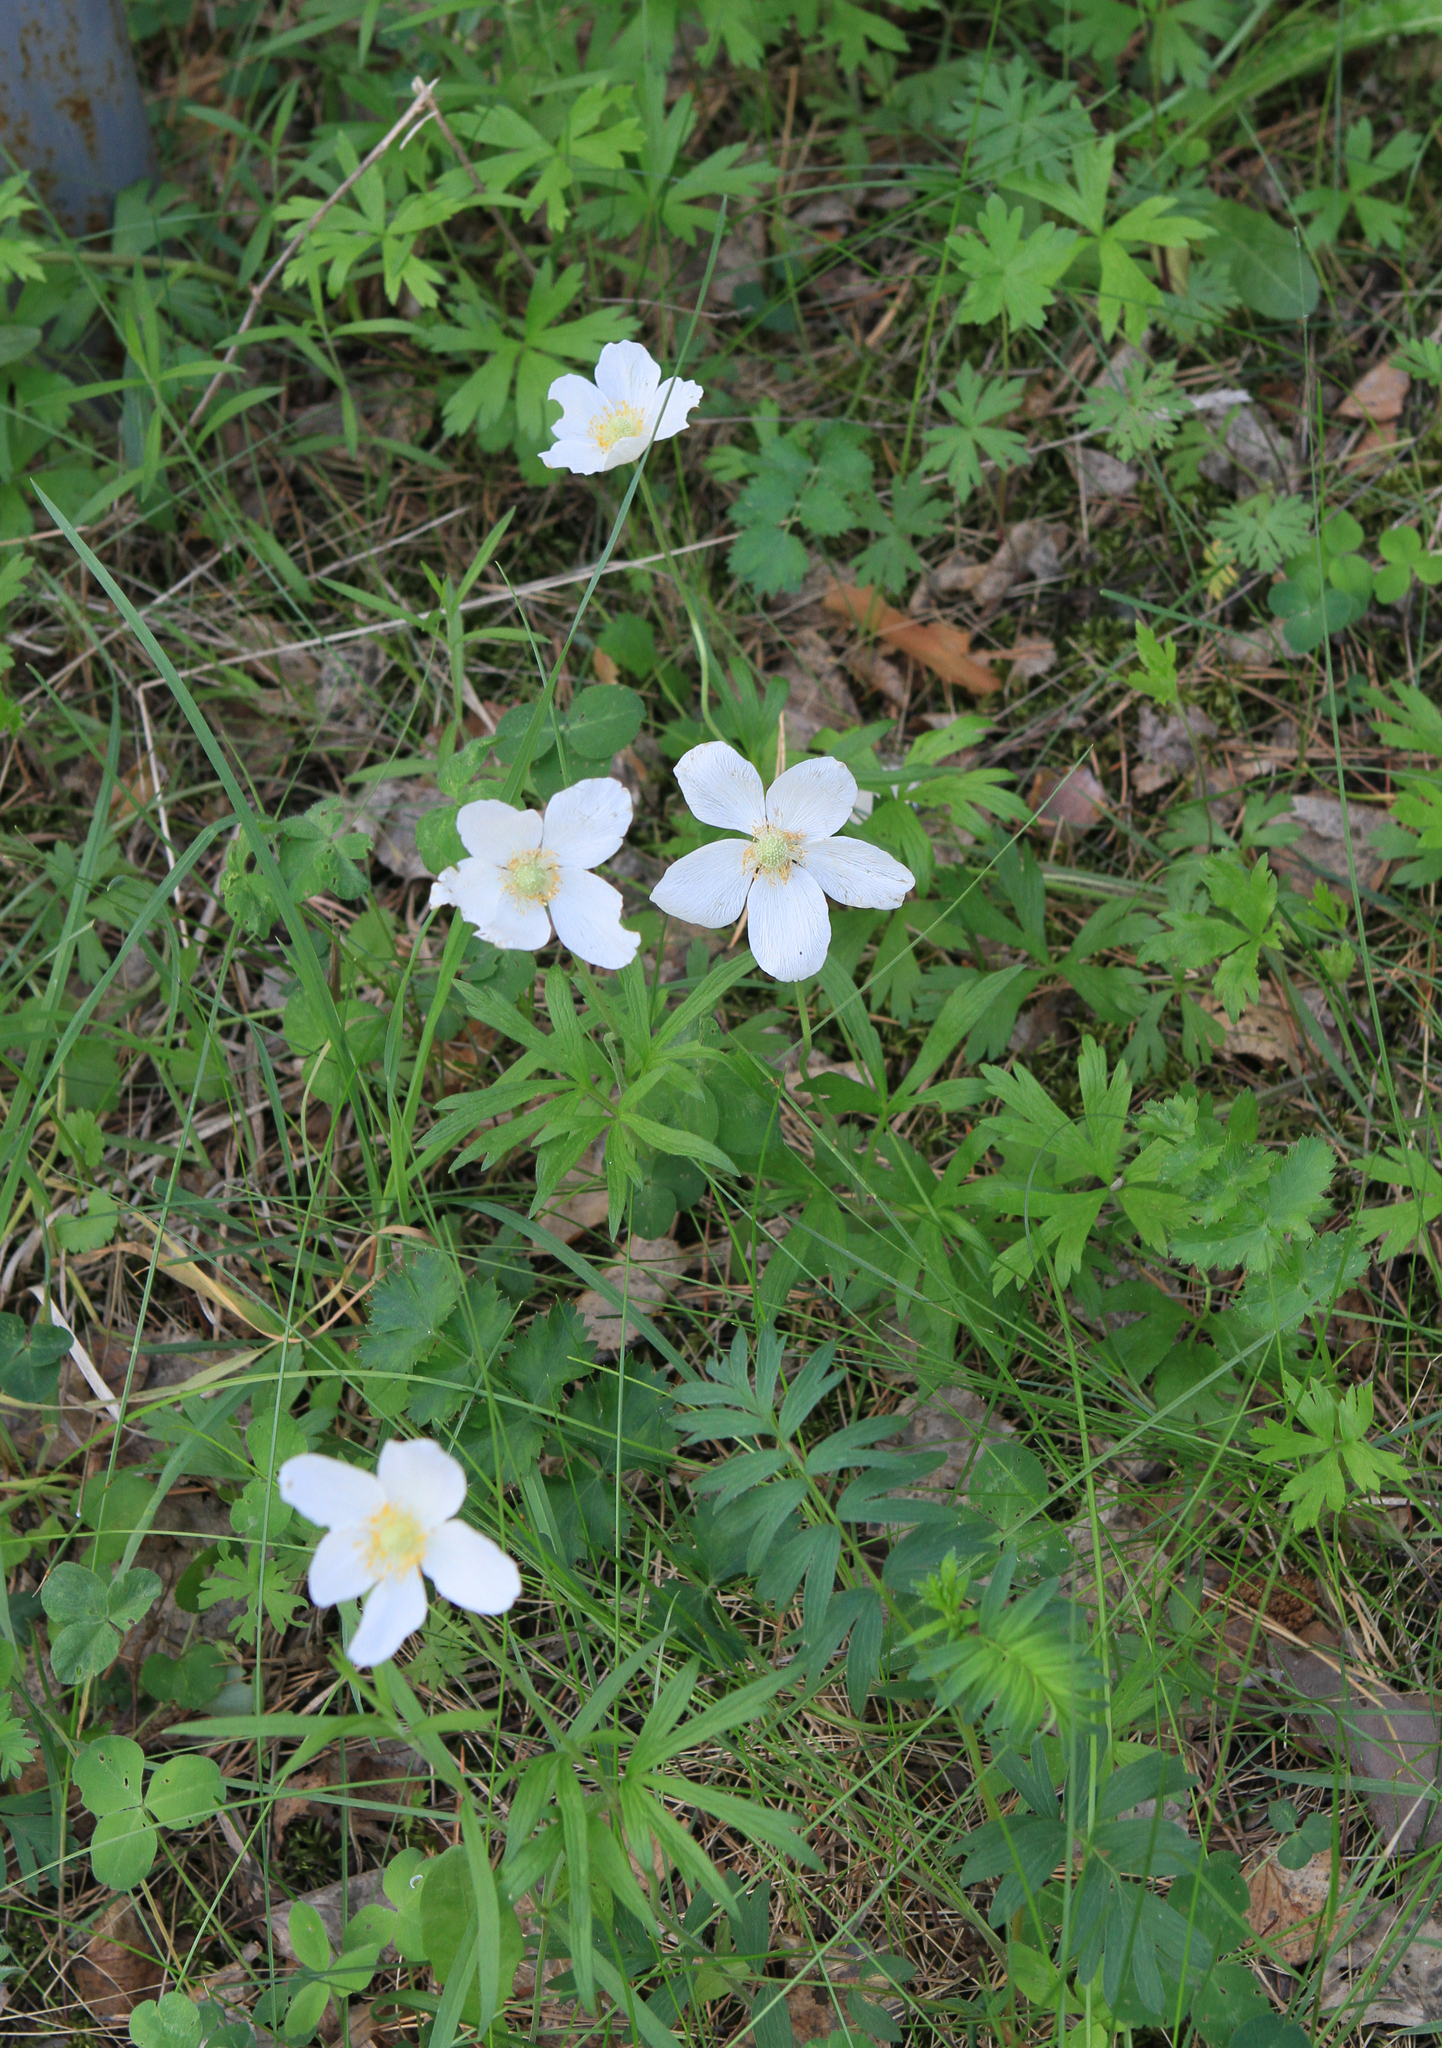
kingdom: Plantae
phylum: Tracheophyta
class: Magnoliopsida
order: Ranunculales
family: Ranunculaceae
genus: Anemone
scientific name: Anemone sylvestris
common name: Snowdrop anemone
